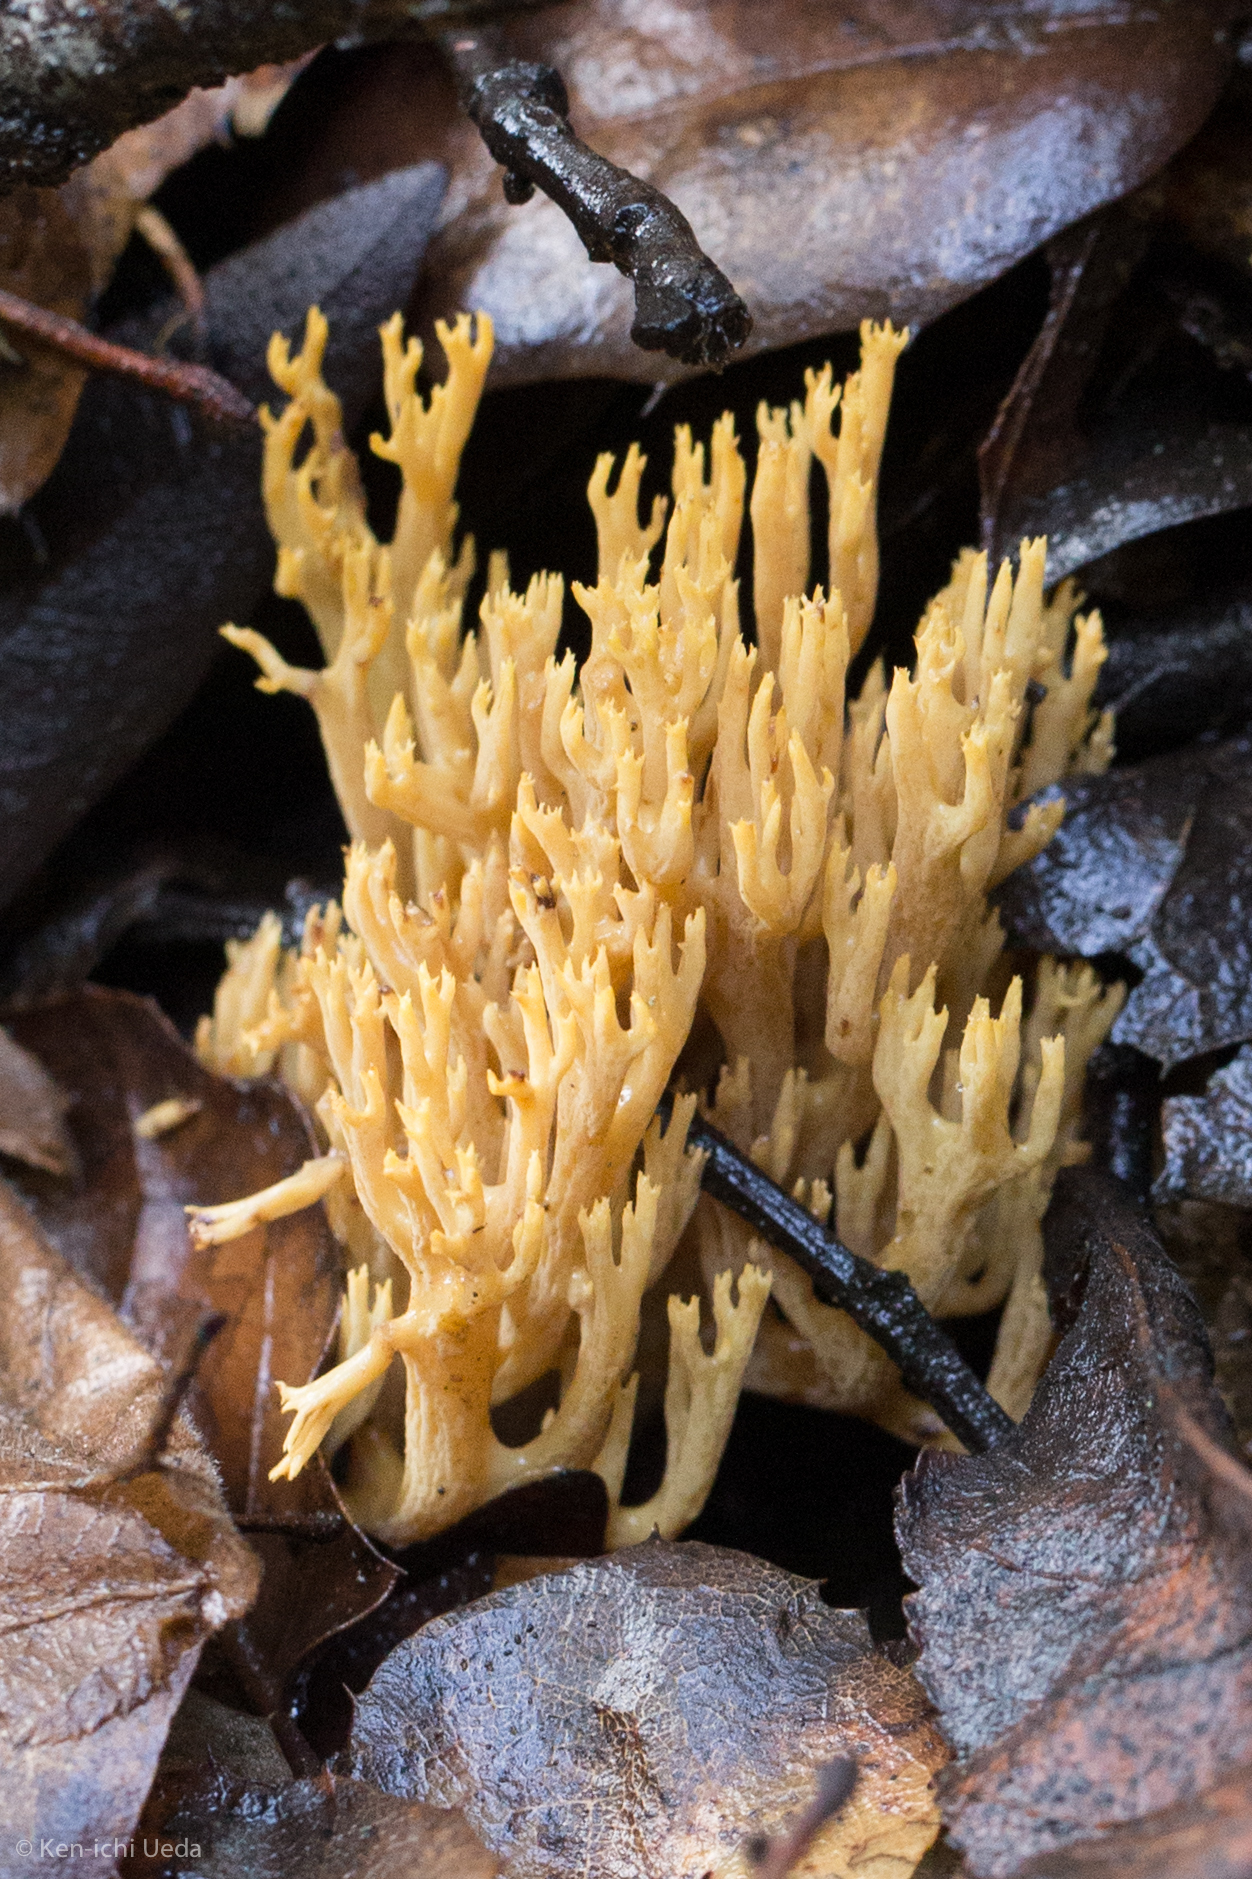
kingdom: Fungi
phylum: Basidiomycota
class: Agaricomycetes
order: Gomphales
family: Gomphaceae
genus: Phaeoclavulina
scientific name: Phaeoclavulina myceliosa
